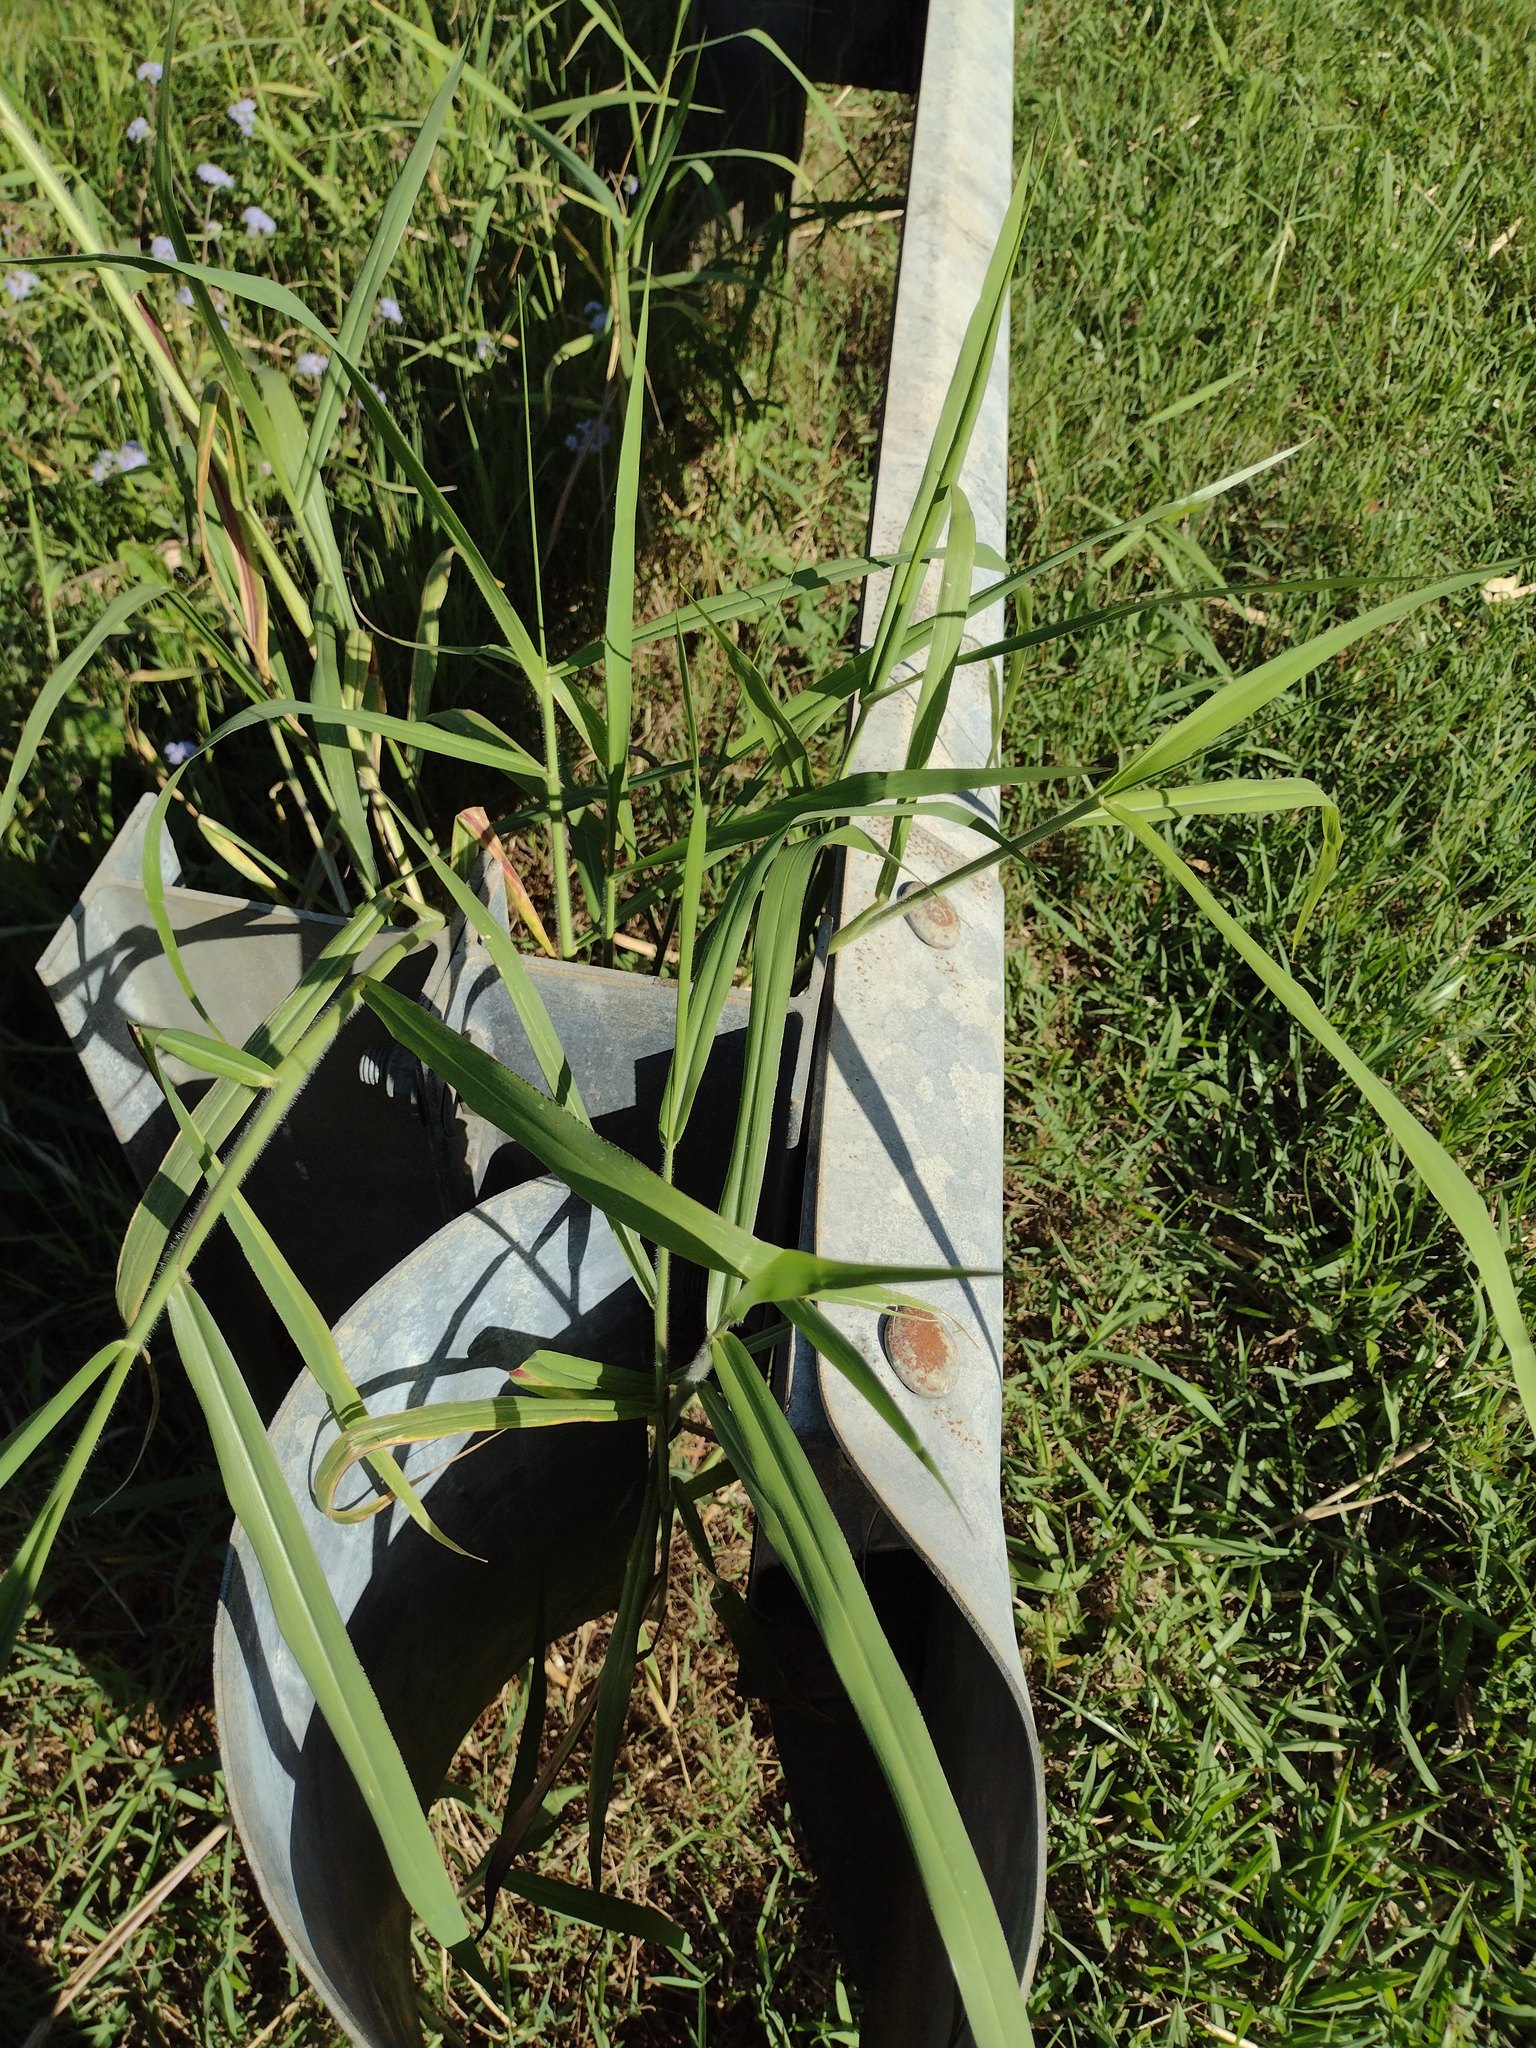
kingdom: Plantae
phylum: Tracheophyta
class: Liliopsida
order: Poales
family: Poaceae
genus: Urochloa
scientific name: Urochloa mutica
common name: Para grass
